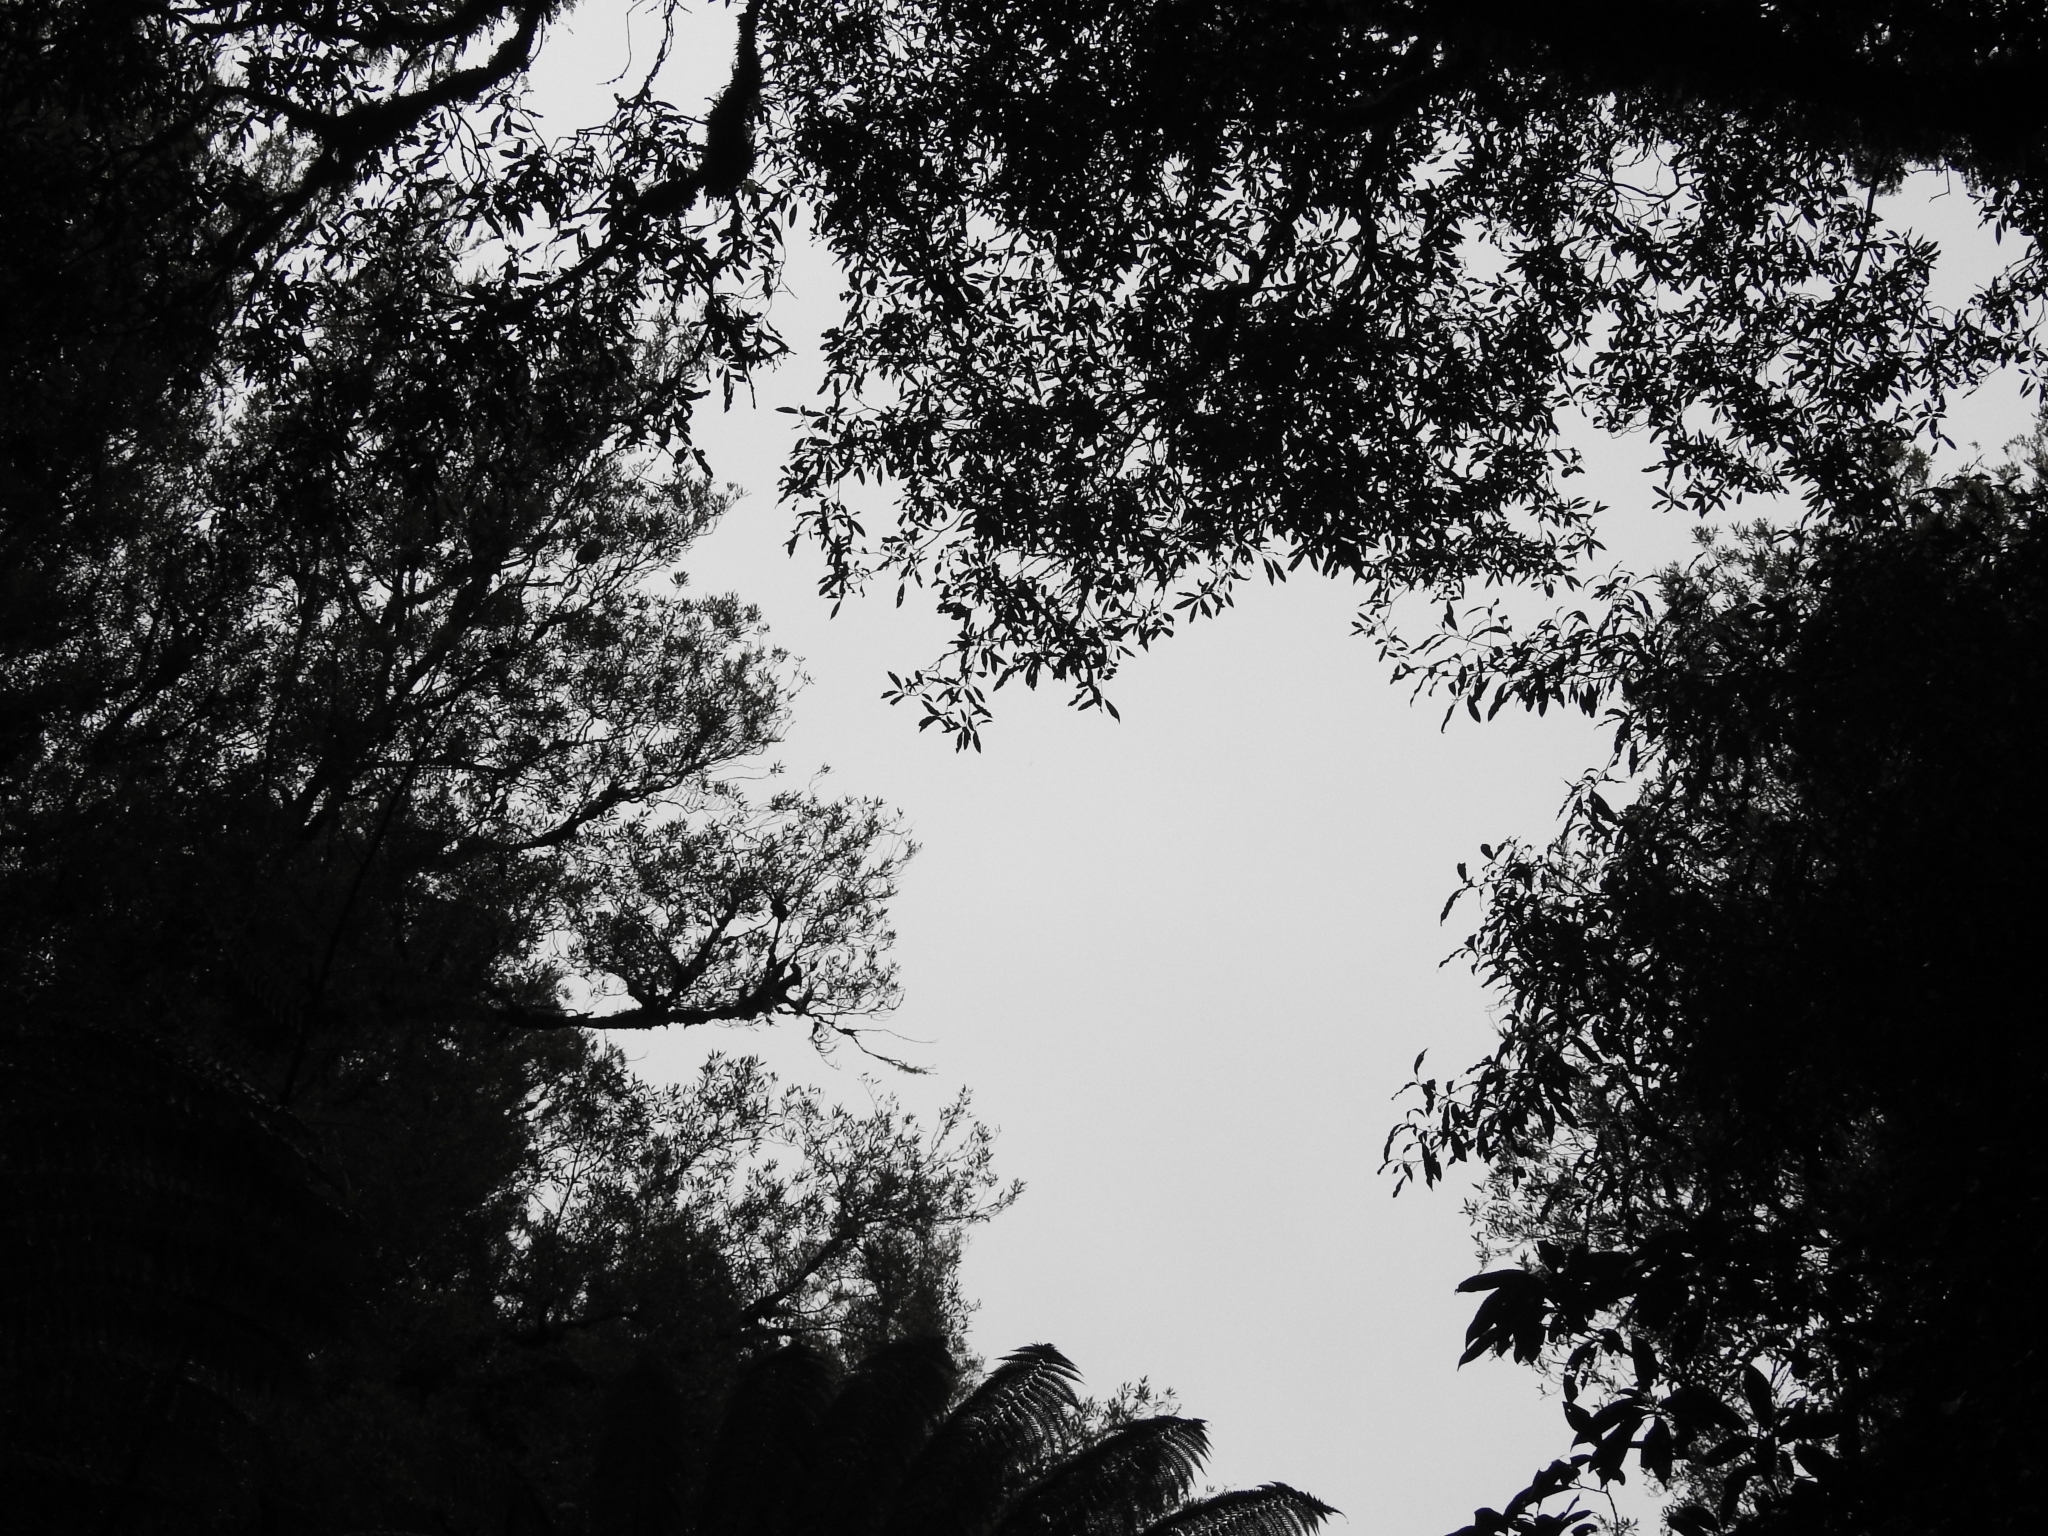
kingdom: Plantae
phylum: Tracheophyta
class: Magnoliopsida
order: Laurales
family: Lauraceae
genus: Beilschmiedia
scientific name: Beilschmiedia tawa
